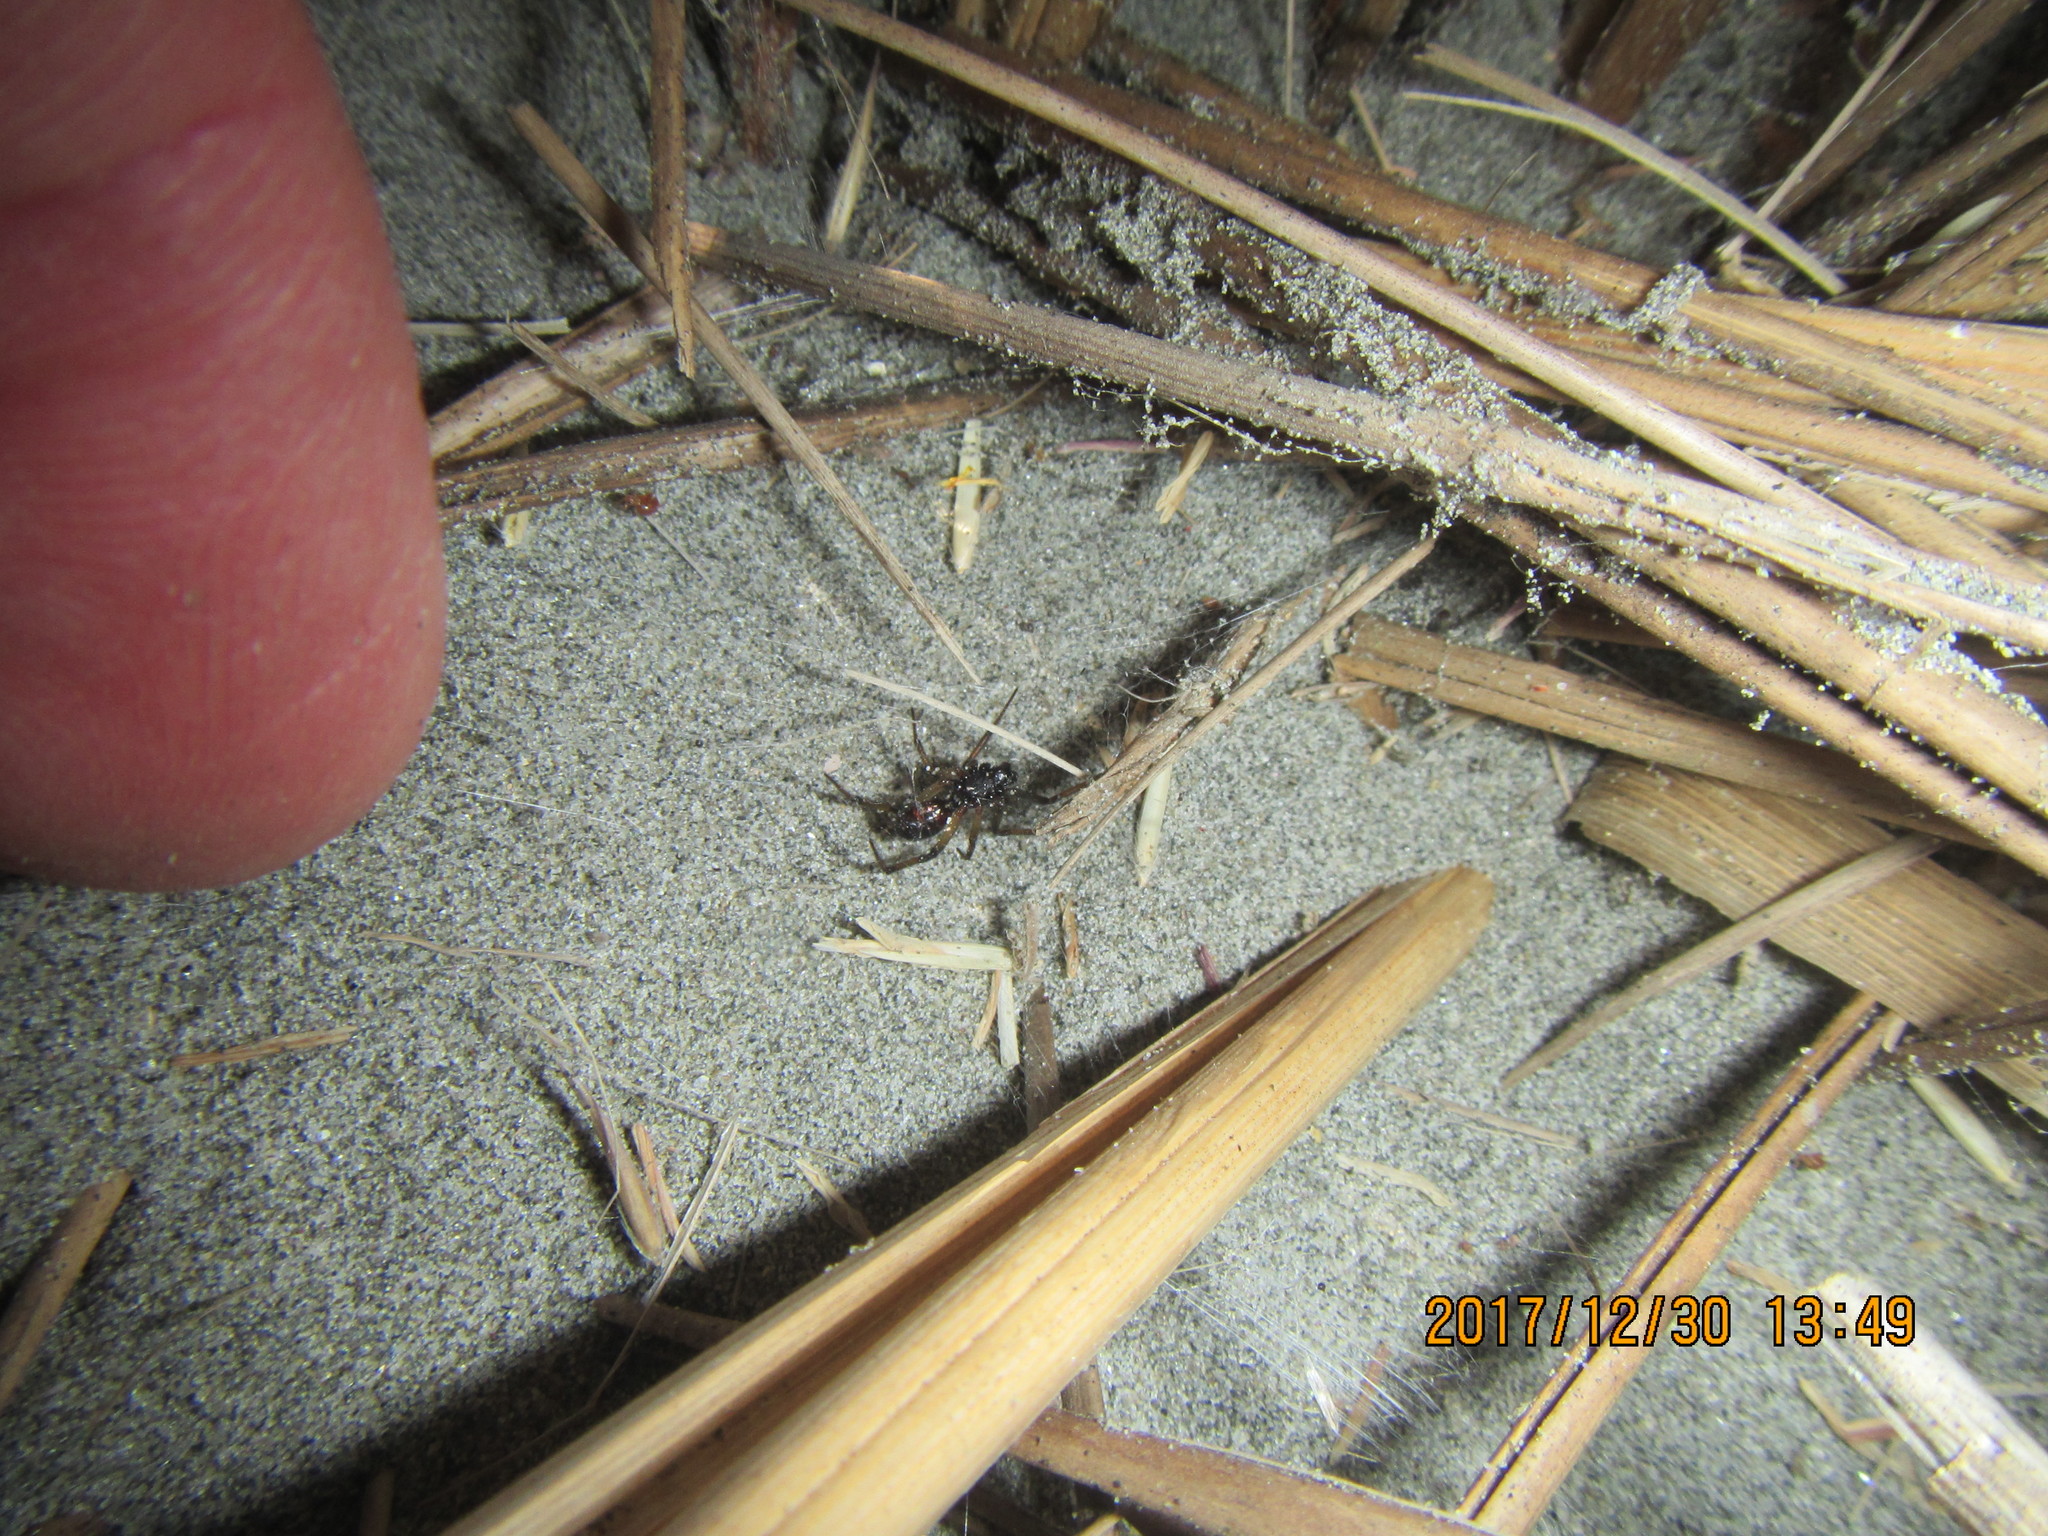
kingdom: Animalia
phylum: Arthropoda
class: Arachnida
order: Araneae
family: Theridiidae
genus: Steatoda
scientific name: Steatoda capensis
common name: Cobweb weaver
